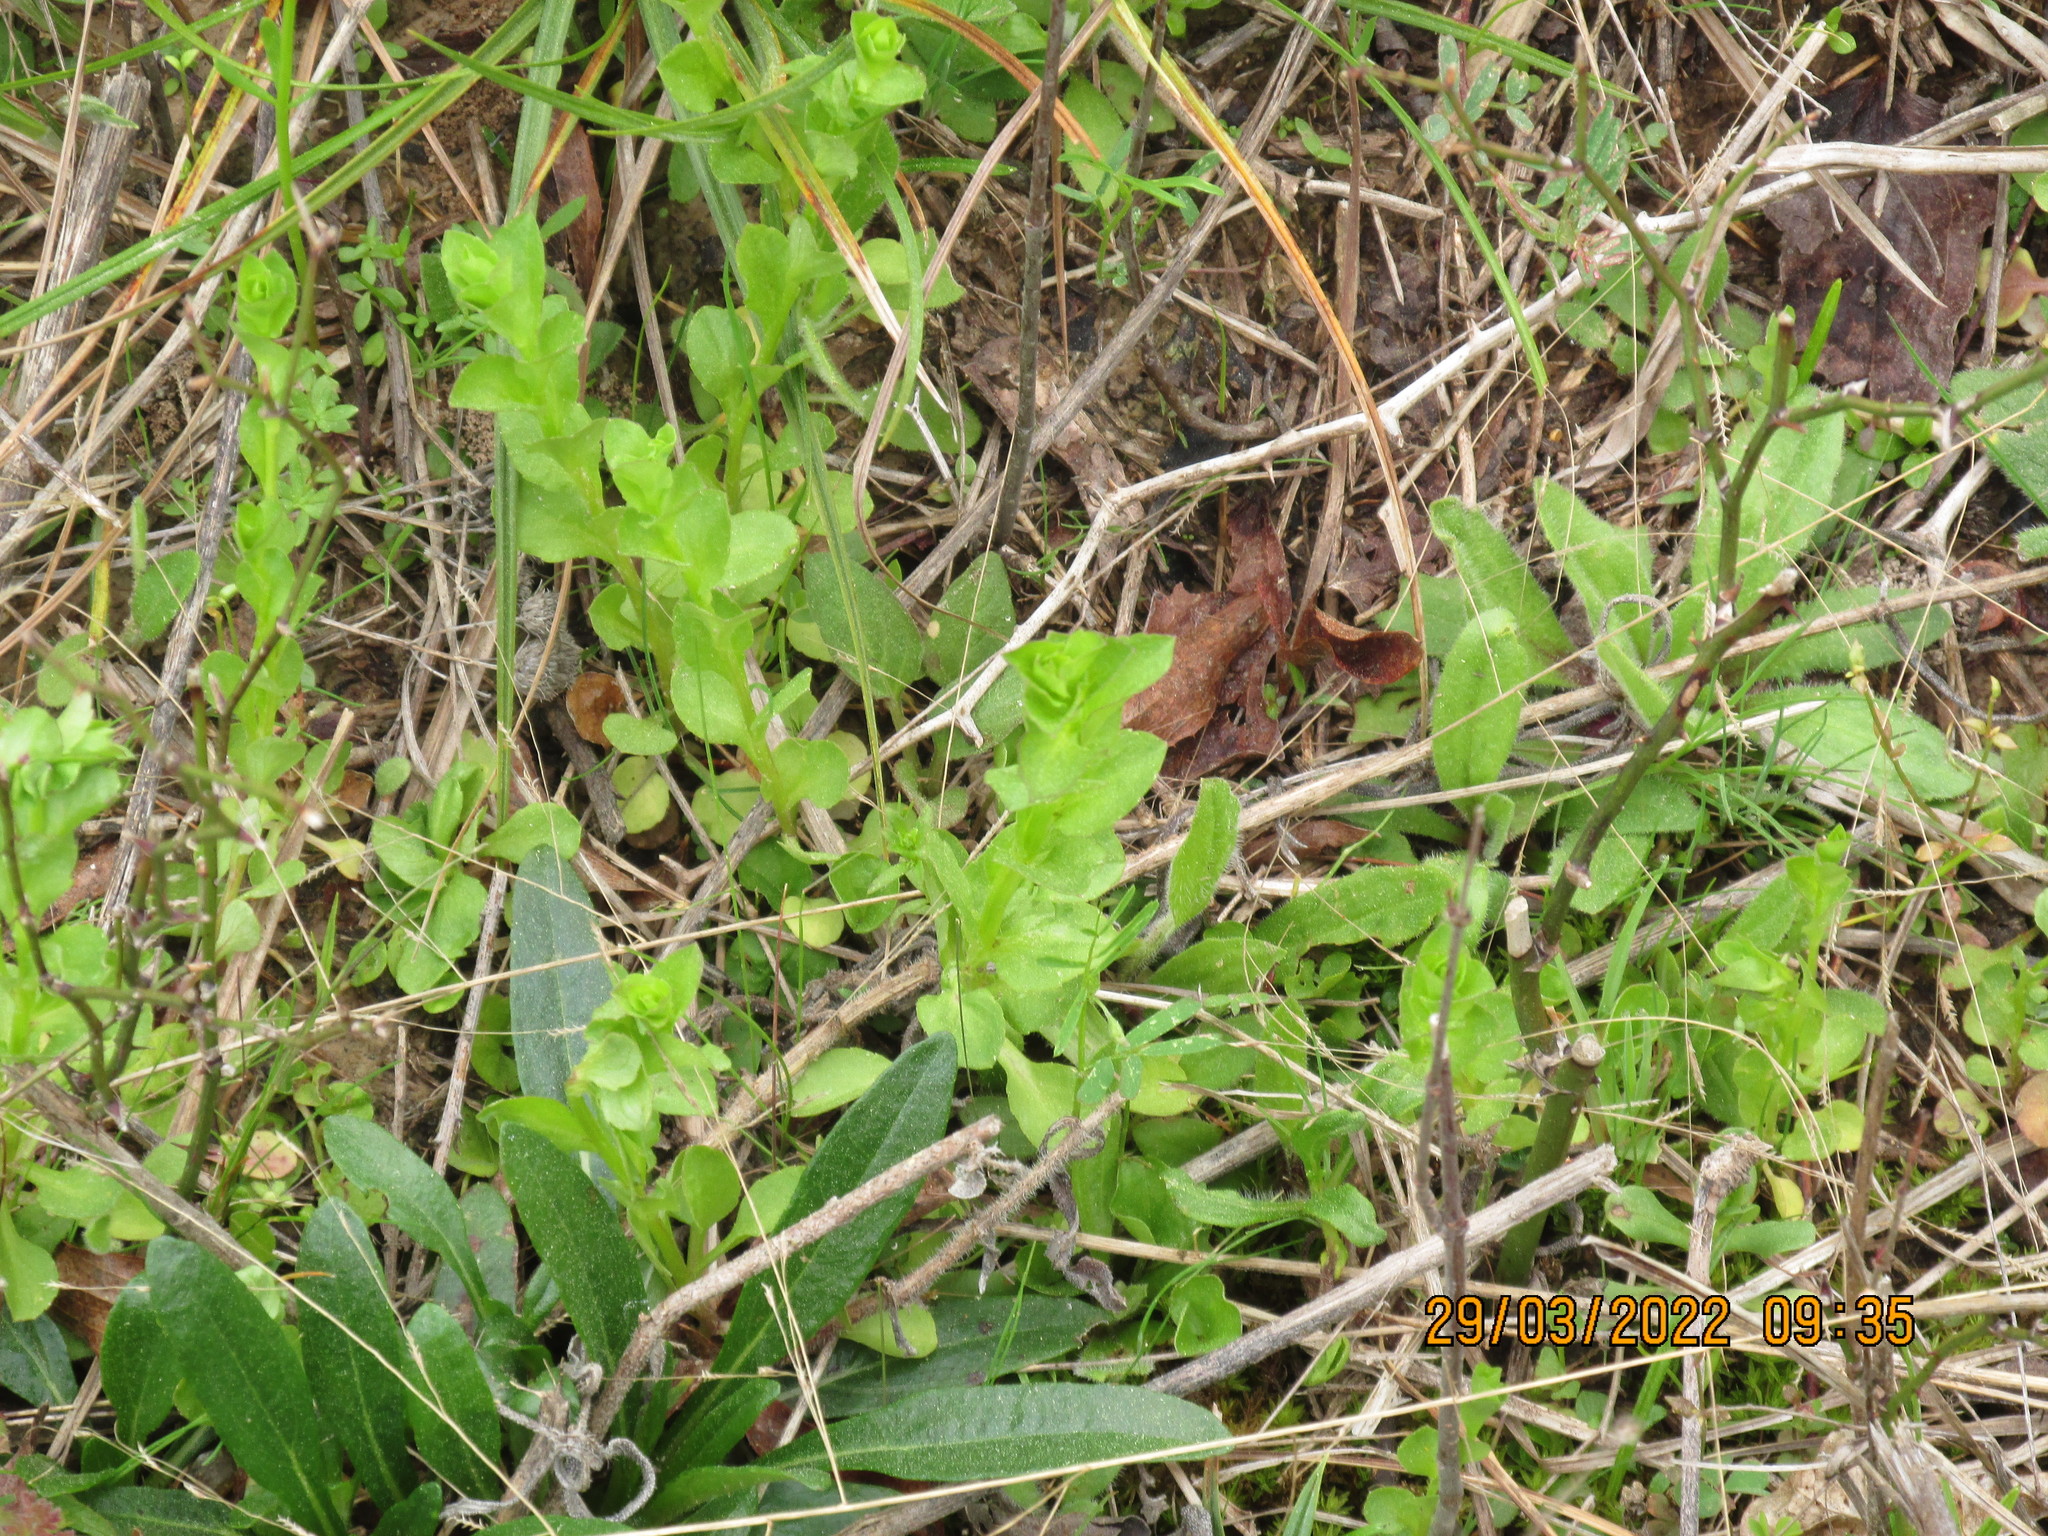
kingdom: Plantae
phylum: Tracheophyta
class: Magnoliopsida
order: Asterales
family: Campanulaceae
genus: Triodanis
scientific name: Triodanis perfoliata
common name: Clasping venus' looking-glass
